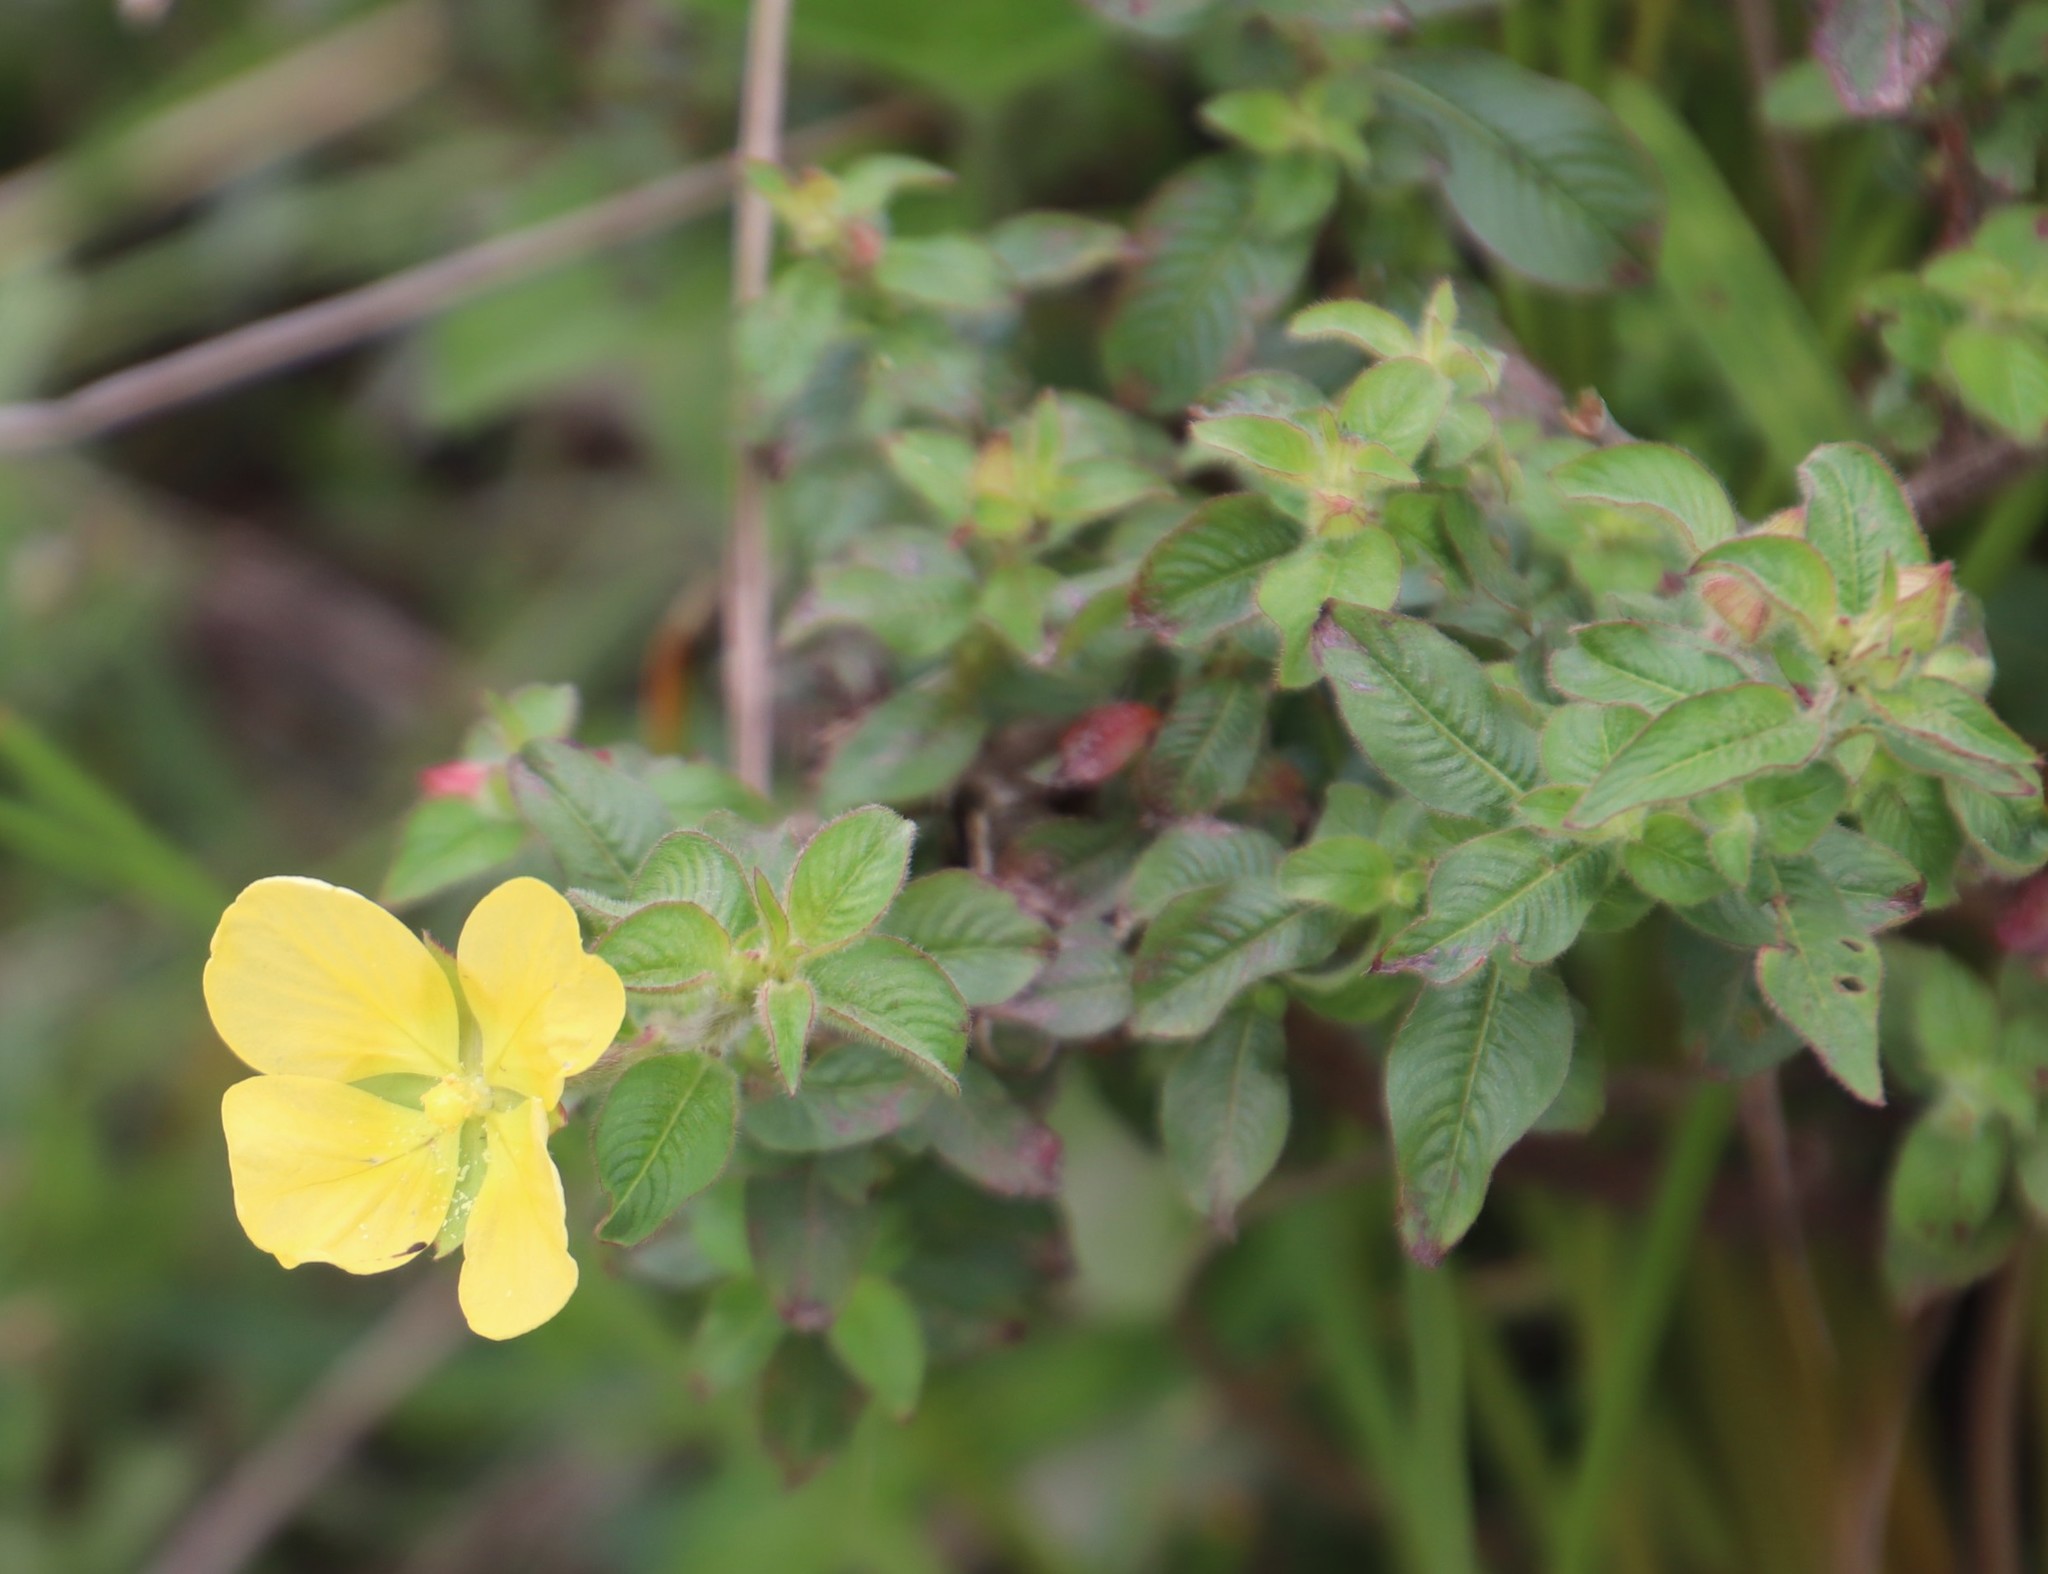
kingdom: Plantae
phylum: Tracheophyta
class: Magnoliopsida
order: Myrtales
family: Onagraceae
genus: Ludwigia
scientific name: Ludwigia octovalvis
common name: Water-primrose
